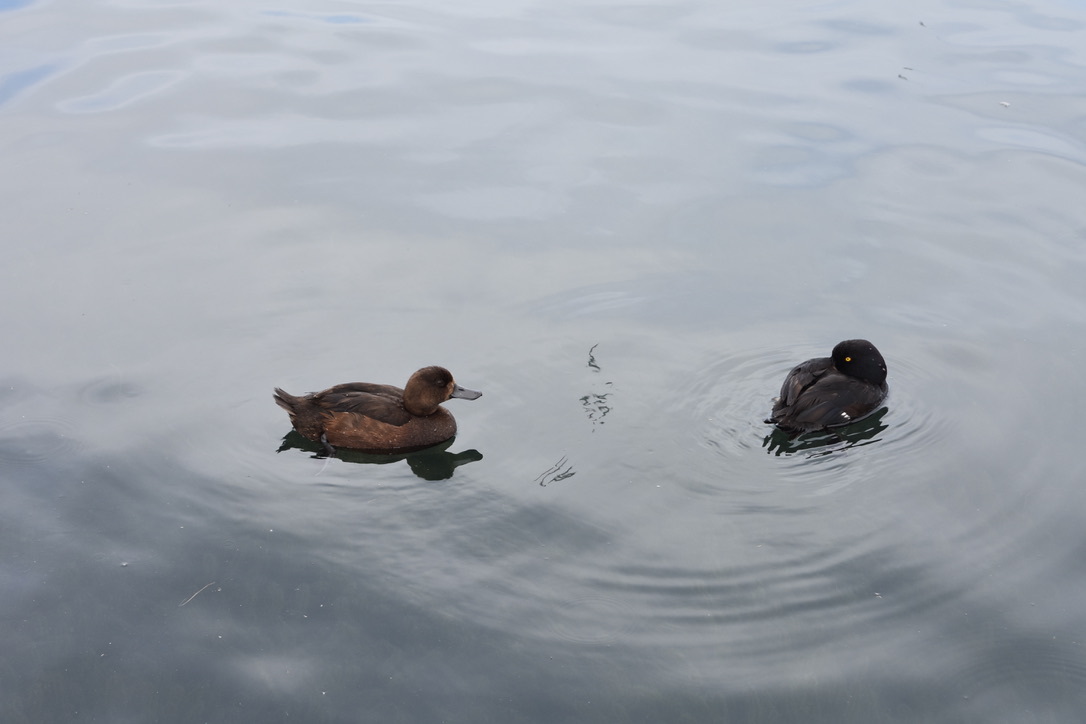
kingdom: Animalia
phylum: Chordata
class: Aves
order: Anseriformes
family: Anatidae
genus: Aythya
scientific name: Aythya novaeseelandiae
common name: New zealand scaup
